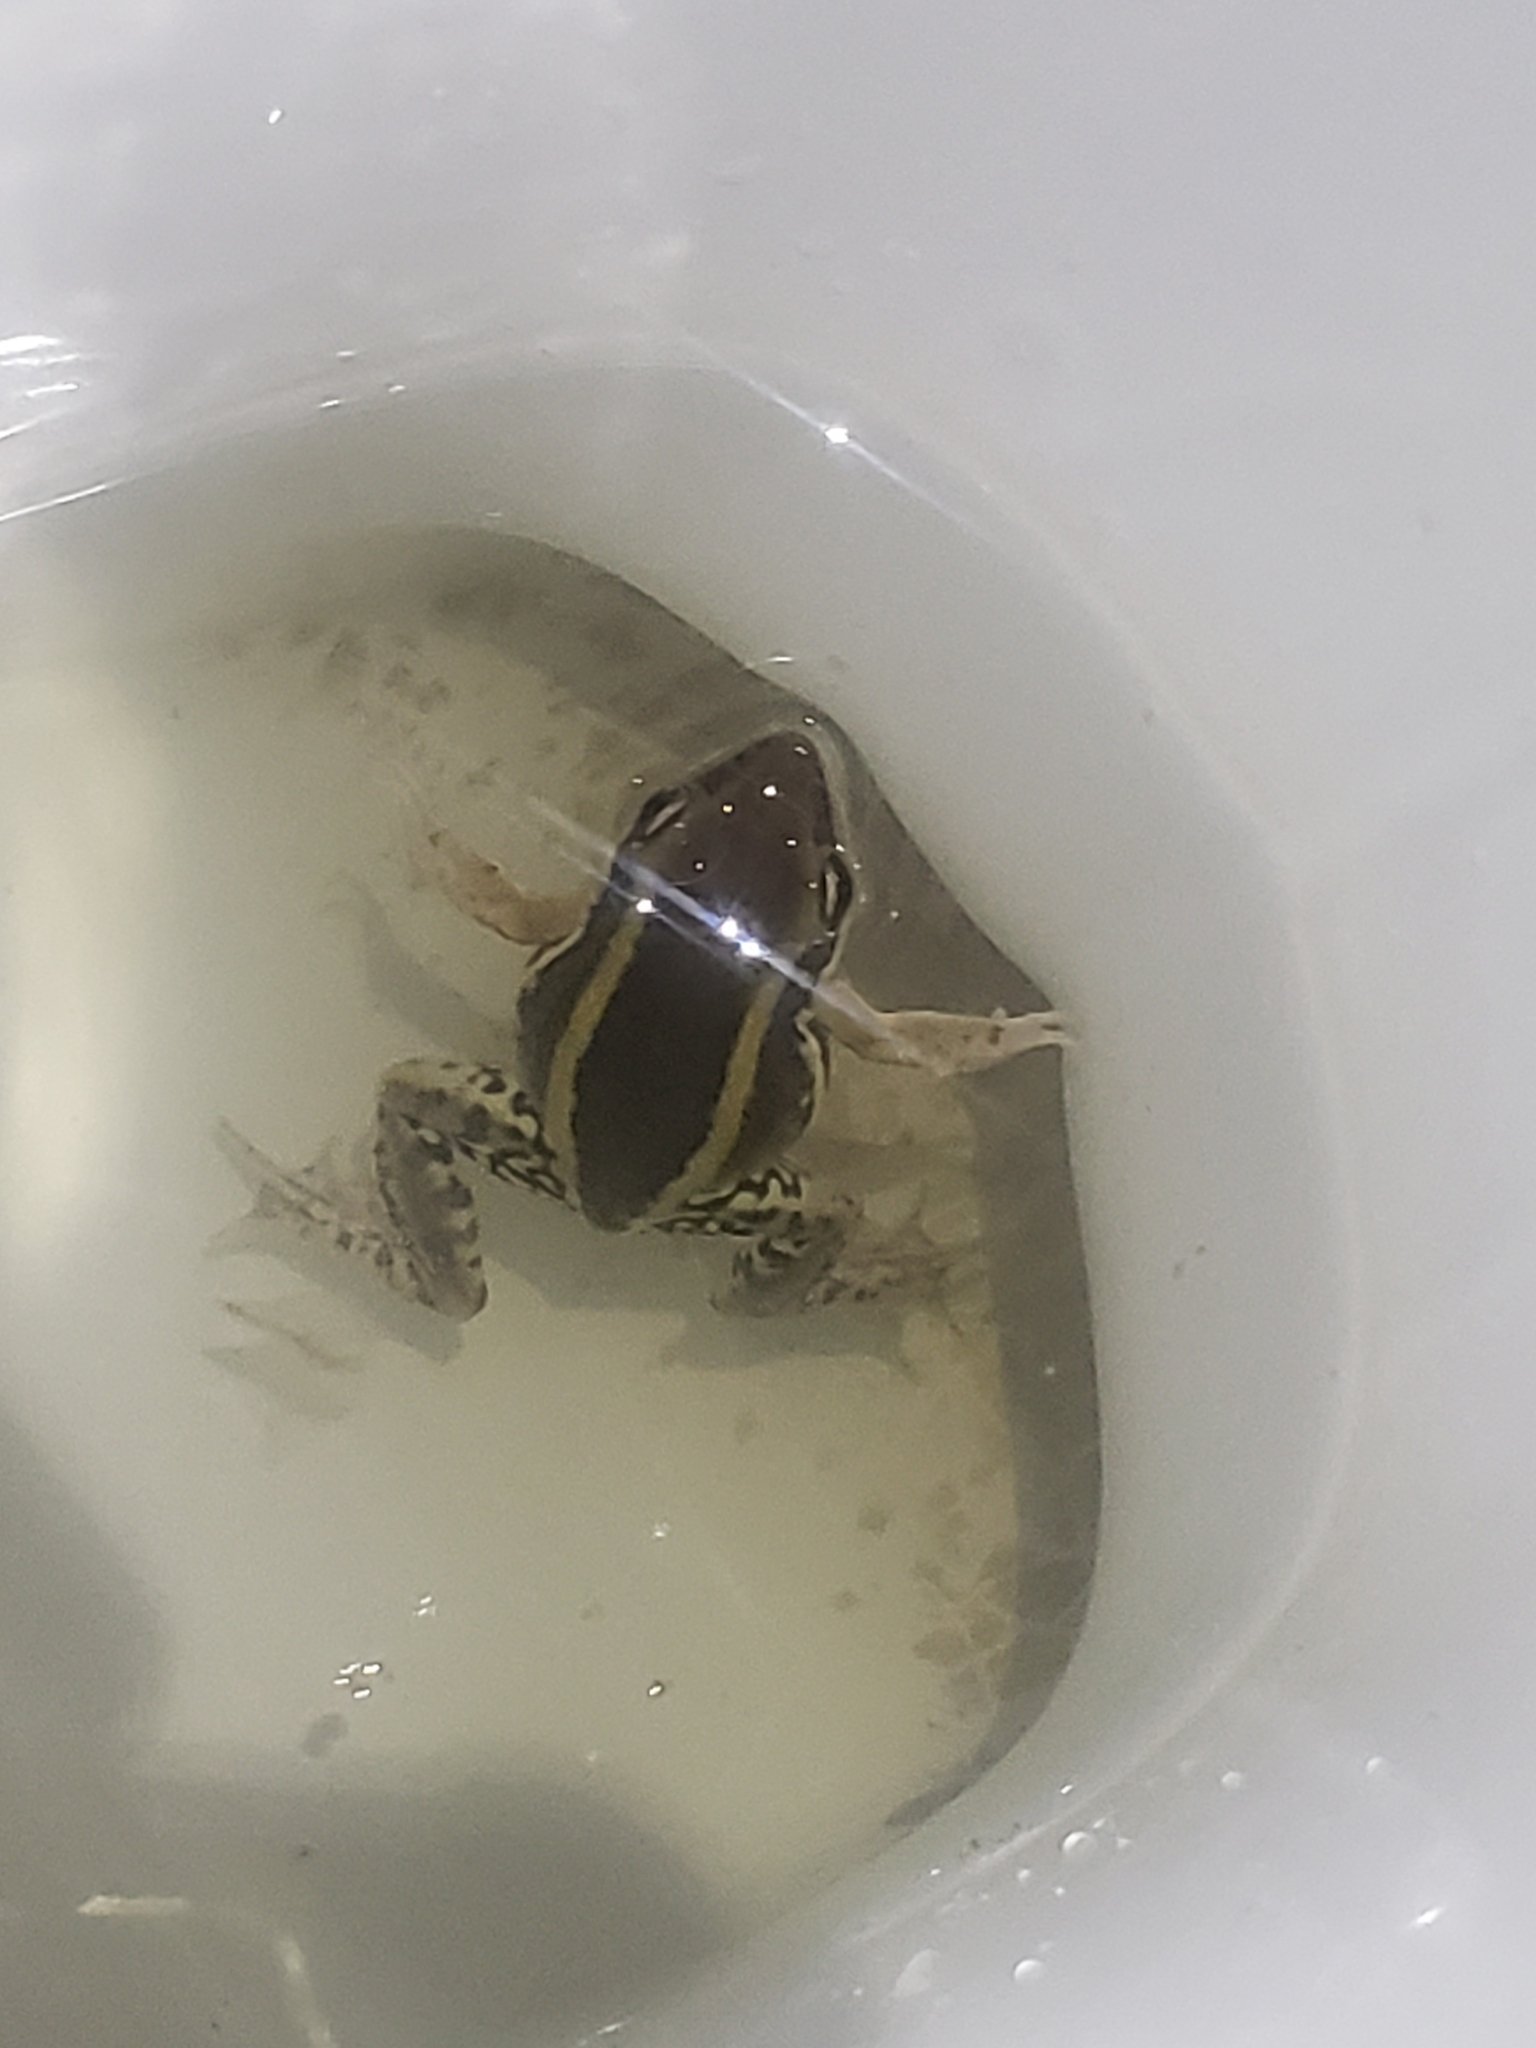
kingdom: Animalia
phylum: Chordata
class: Amphibia
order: Anura
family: Ranidae
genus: Amnirana
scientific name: Amnirana galamensis
